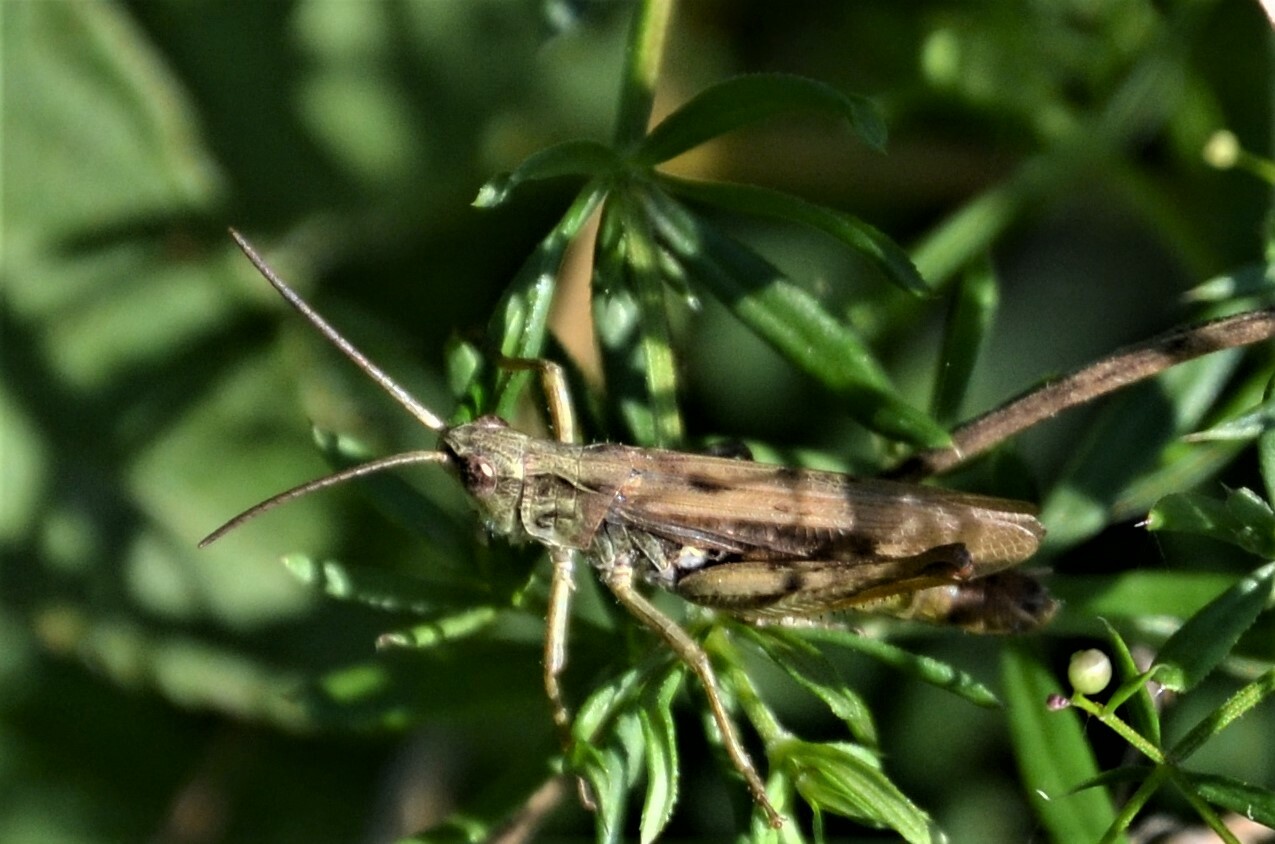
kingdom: Animalia
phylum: Arthropoda
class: Insecta
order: Orthoptera
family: Acrididae
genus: Chorthippus
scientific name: Chorthippus apricarius
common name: Upland field grasshopper
